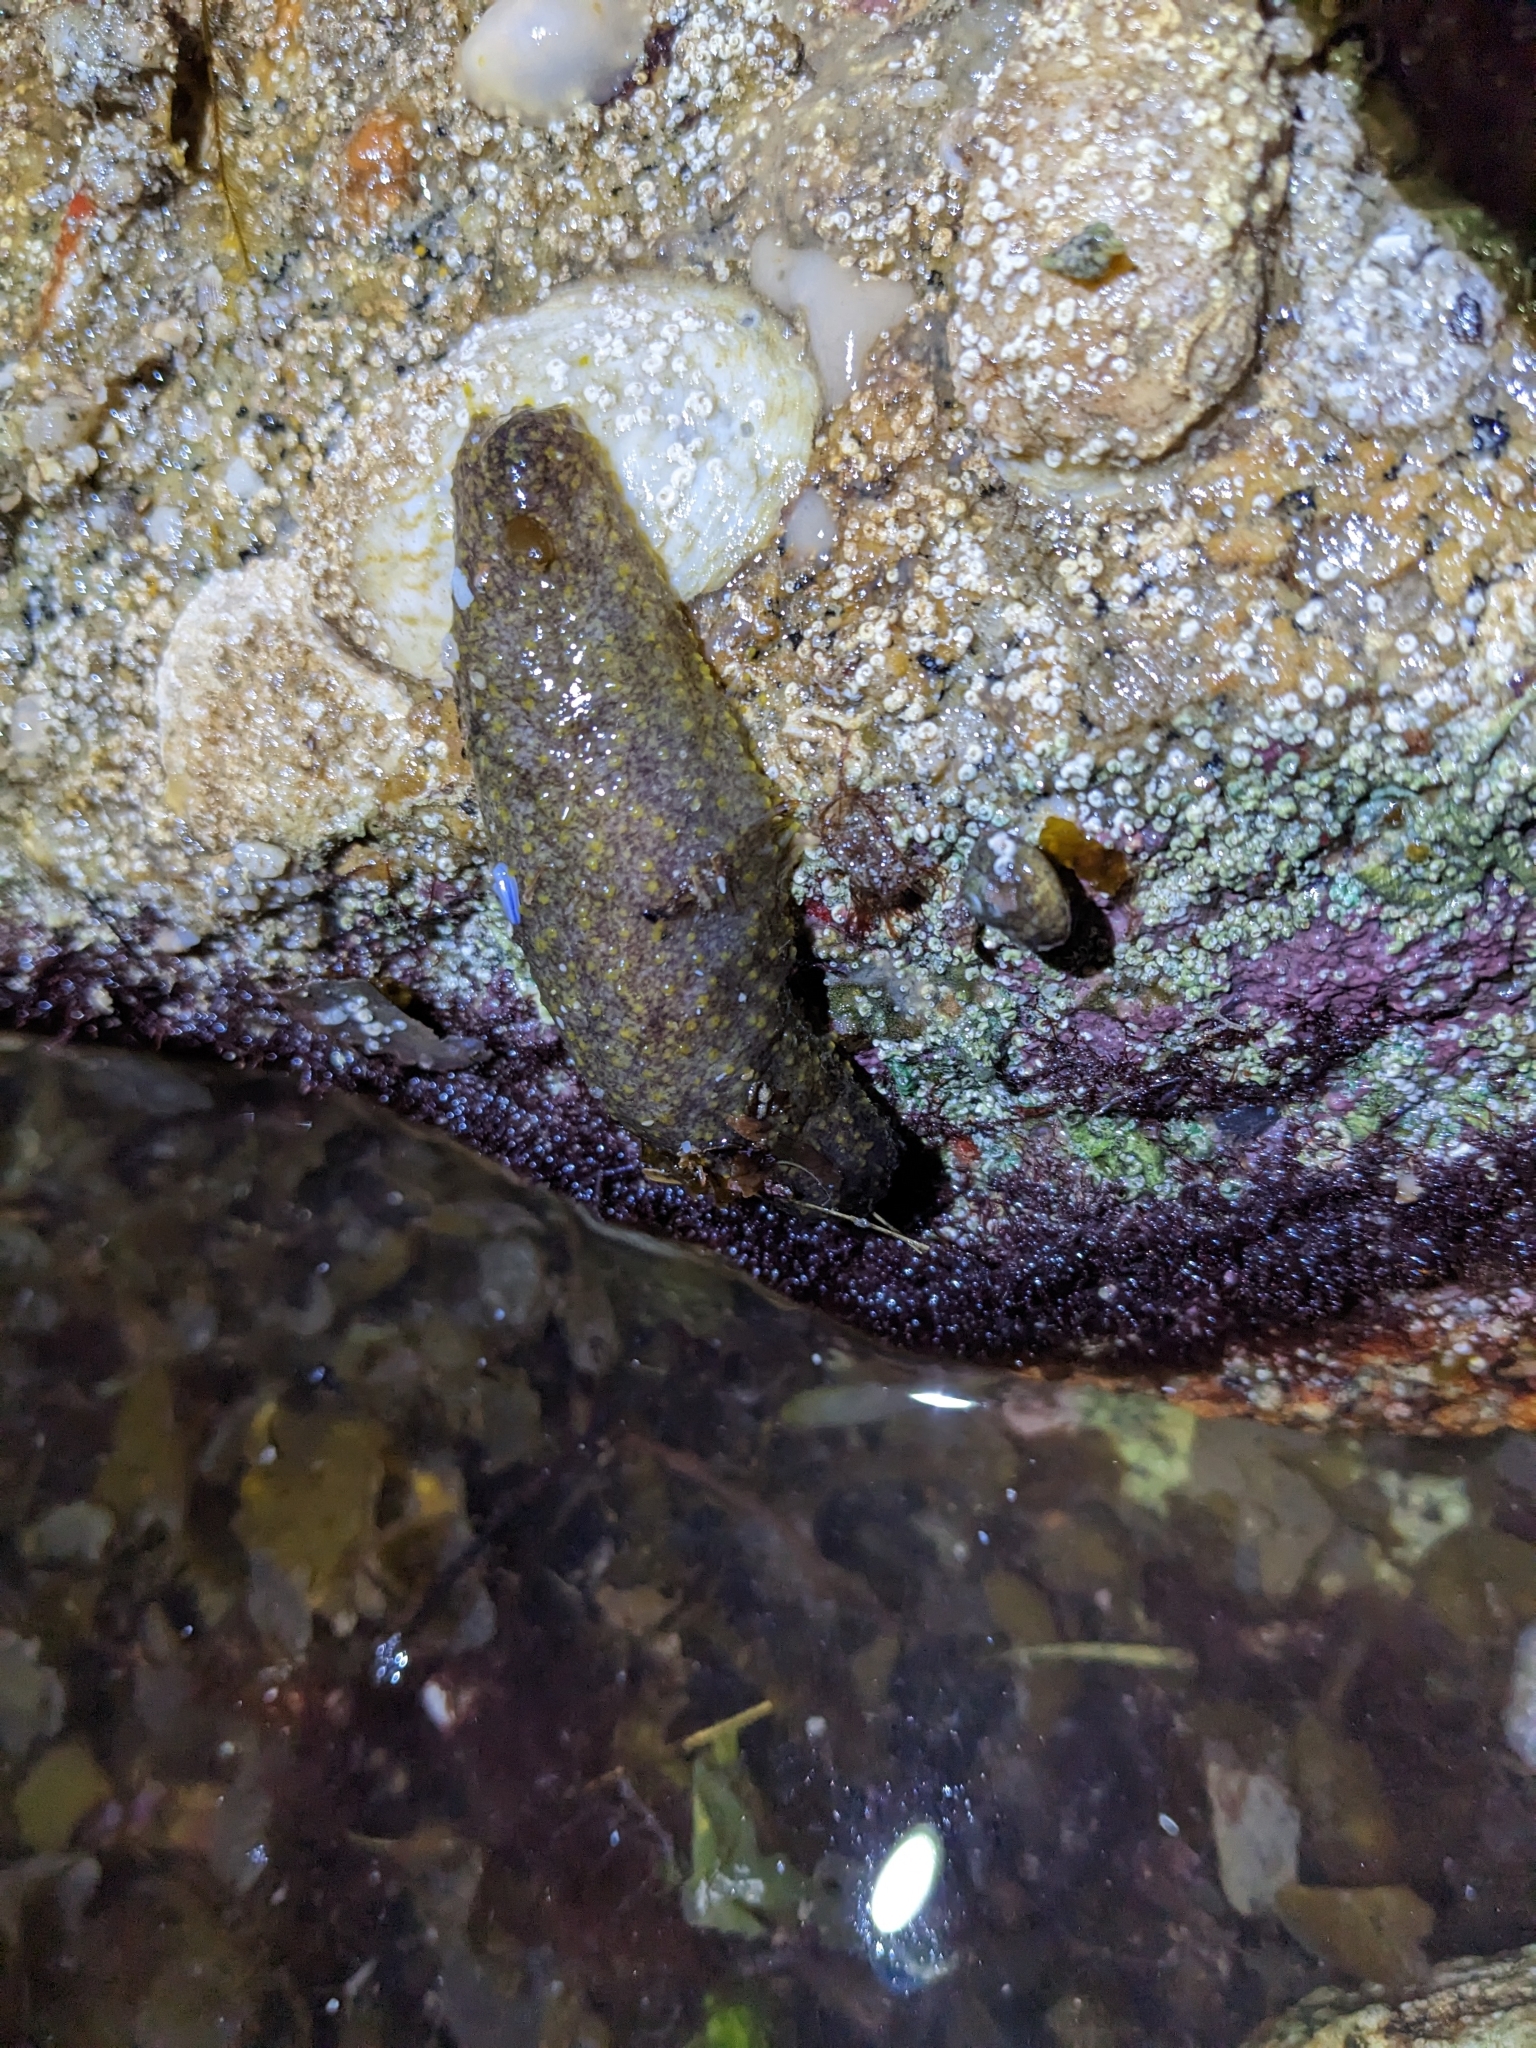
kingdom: Animalia
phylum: Echinodermata
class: Holothuroidea
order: Holothuriida
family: Holothuriidae
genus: Holothuria
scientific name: Holothuria lubrica
